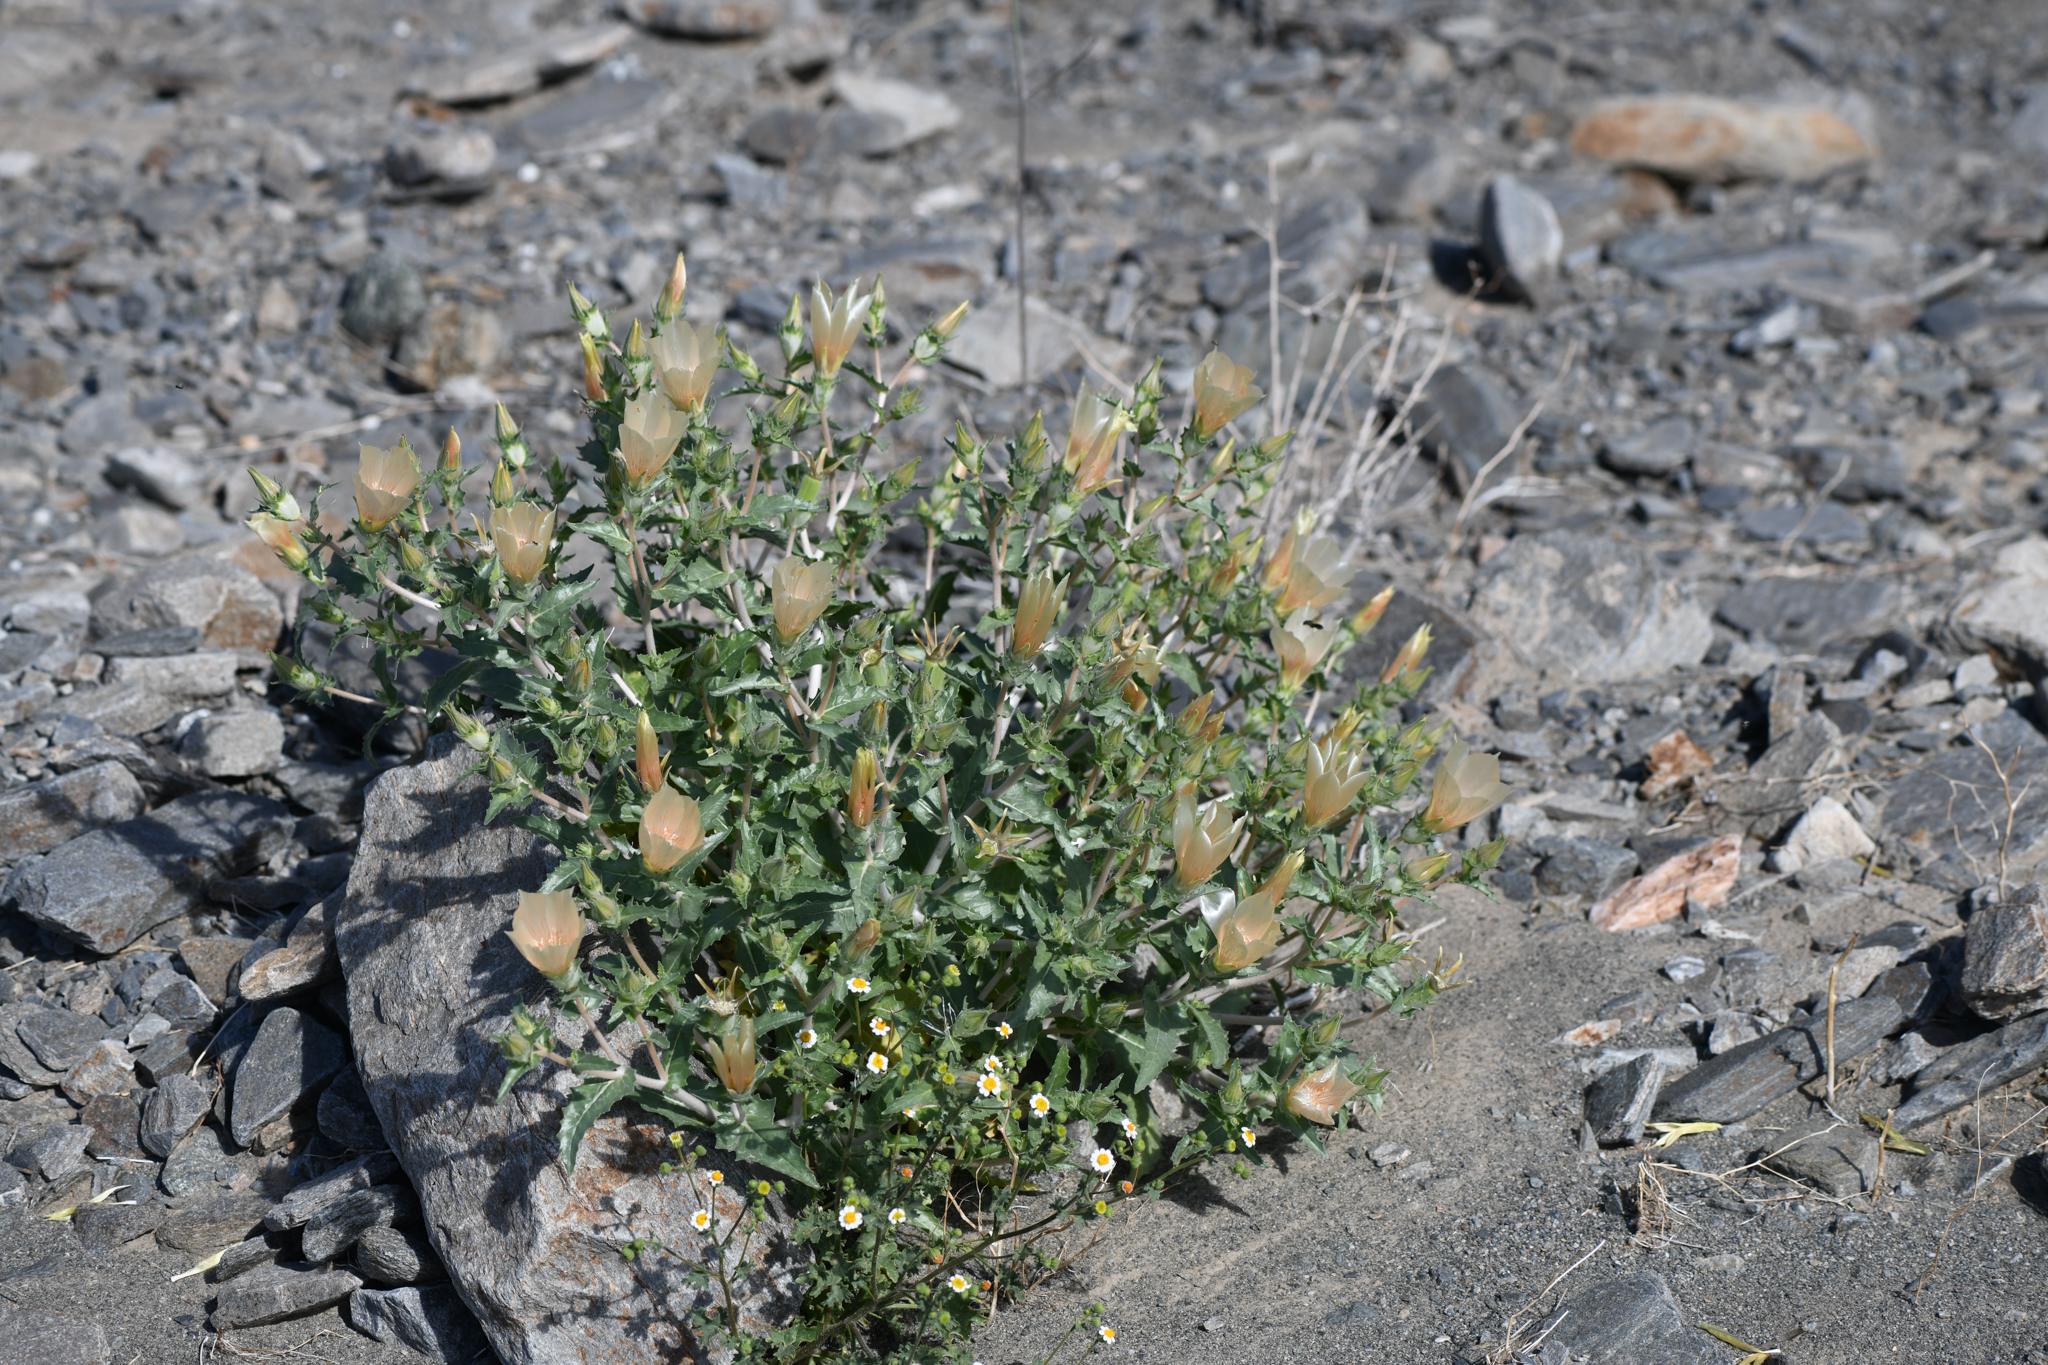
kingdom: Plantae
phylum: Tracheophyta
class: Magnoliopsida
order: Cornales
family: Loasaceae
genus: Mentzelia
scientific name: Mentzelia involucrata
